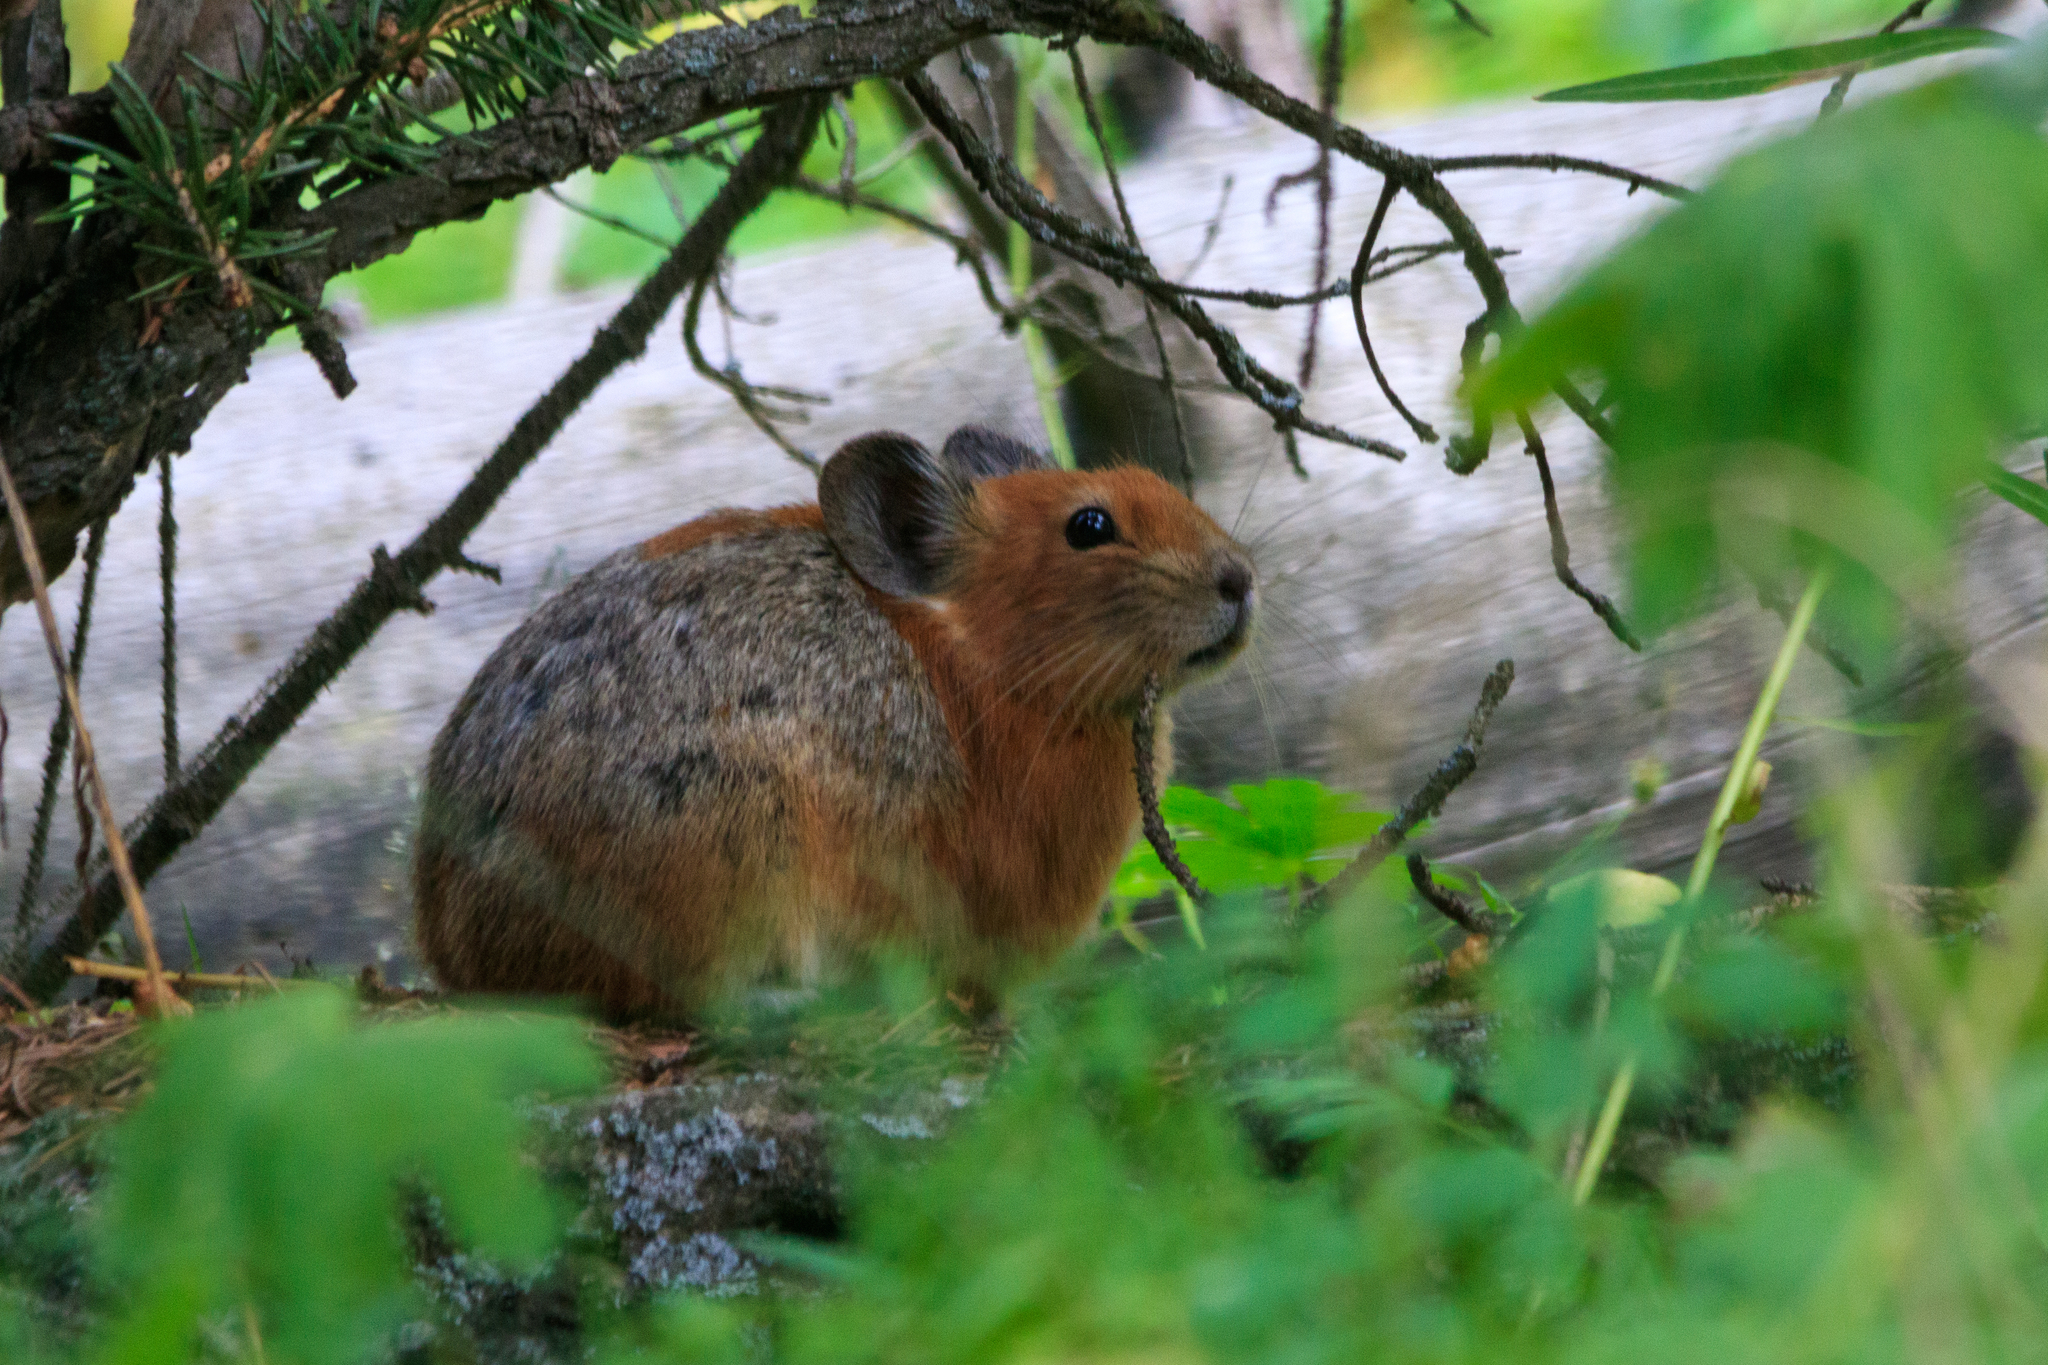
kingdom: Animalia
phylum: Chordata
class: Mammalia
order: Lagomorpha
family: Ochotonidae
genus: Ochotona
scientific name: Ochotona rutila
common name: Turkestan red pika
